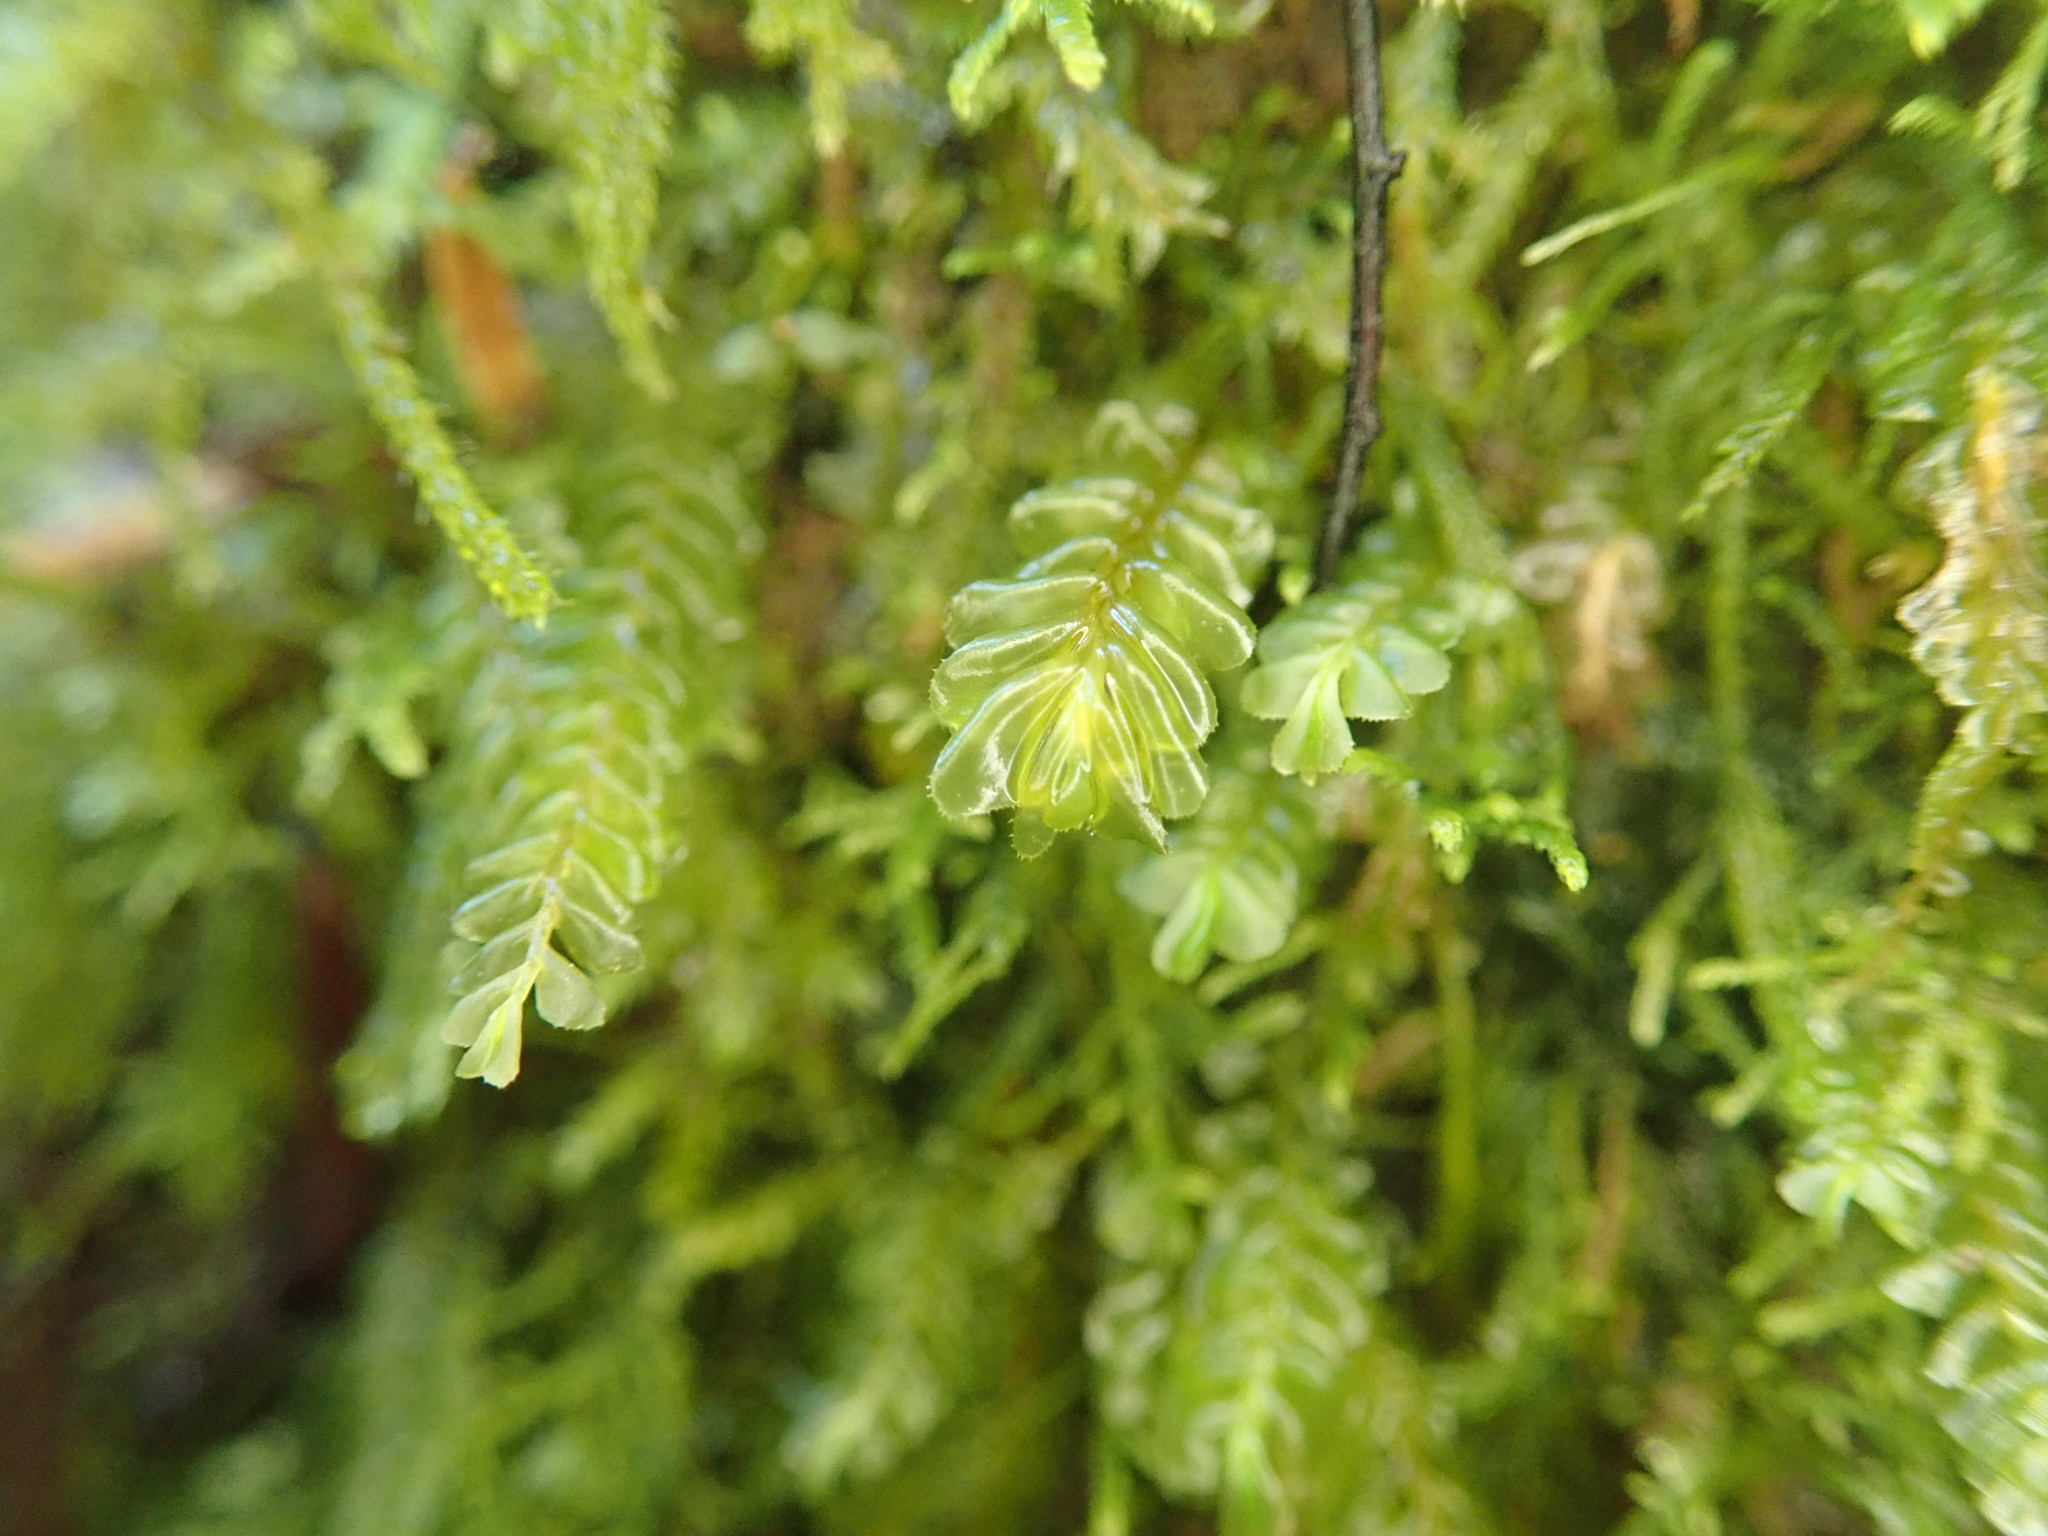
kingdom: Plantae
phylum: Marchantiophyta
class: Jungermanniopsida
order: Jungermanniales
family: Plagiochilaceae
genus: Plagiochila
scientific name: Plagiochila porelloides
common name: Lesser featherwort
